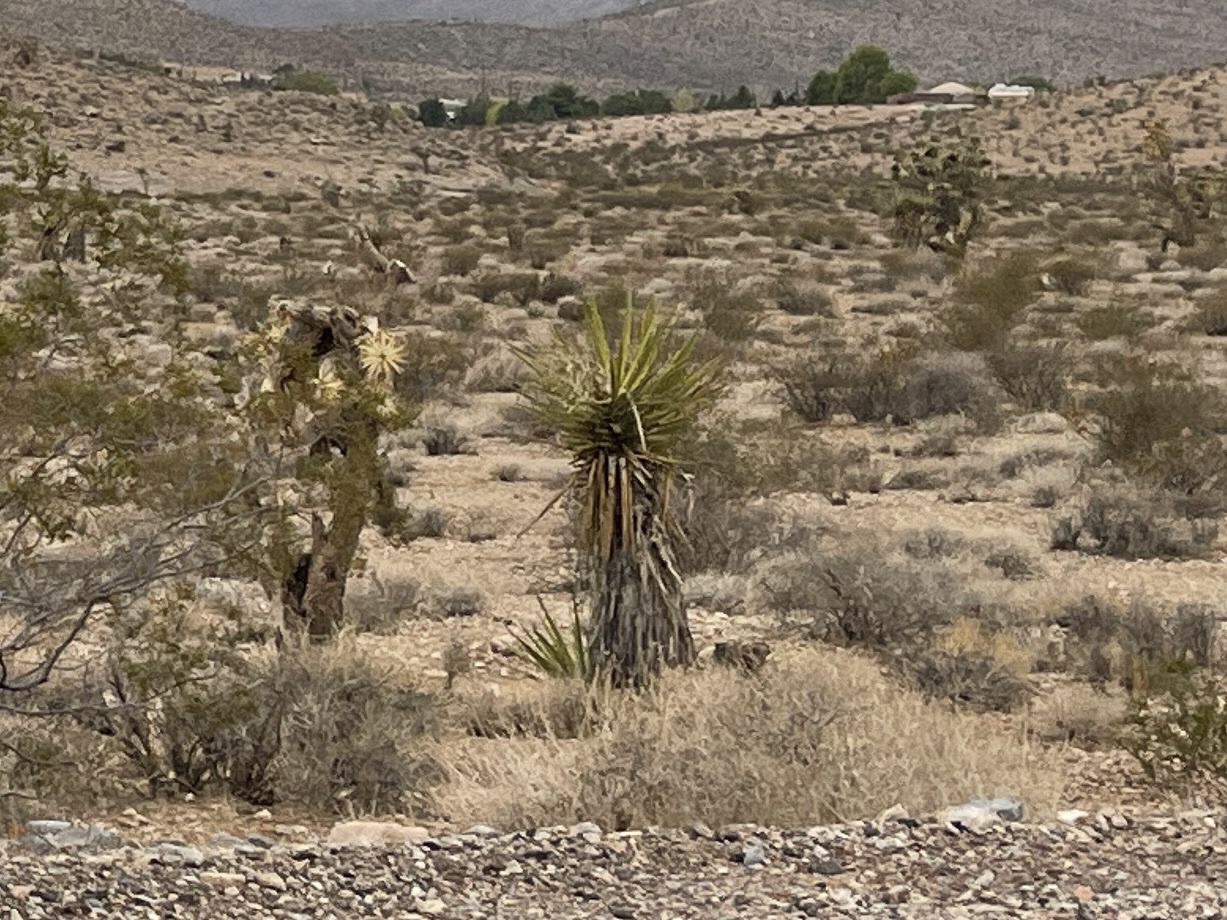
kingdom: Plantae
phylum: Tracheophyta
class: Liliopsida
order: Asparagales
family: Asparagaceae
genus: Yucca
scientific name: Yucca schidigera
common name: Mojave yucca
